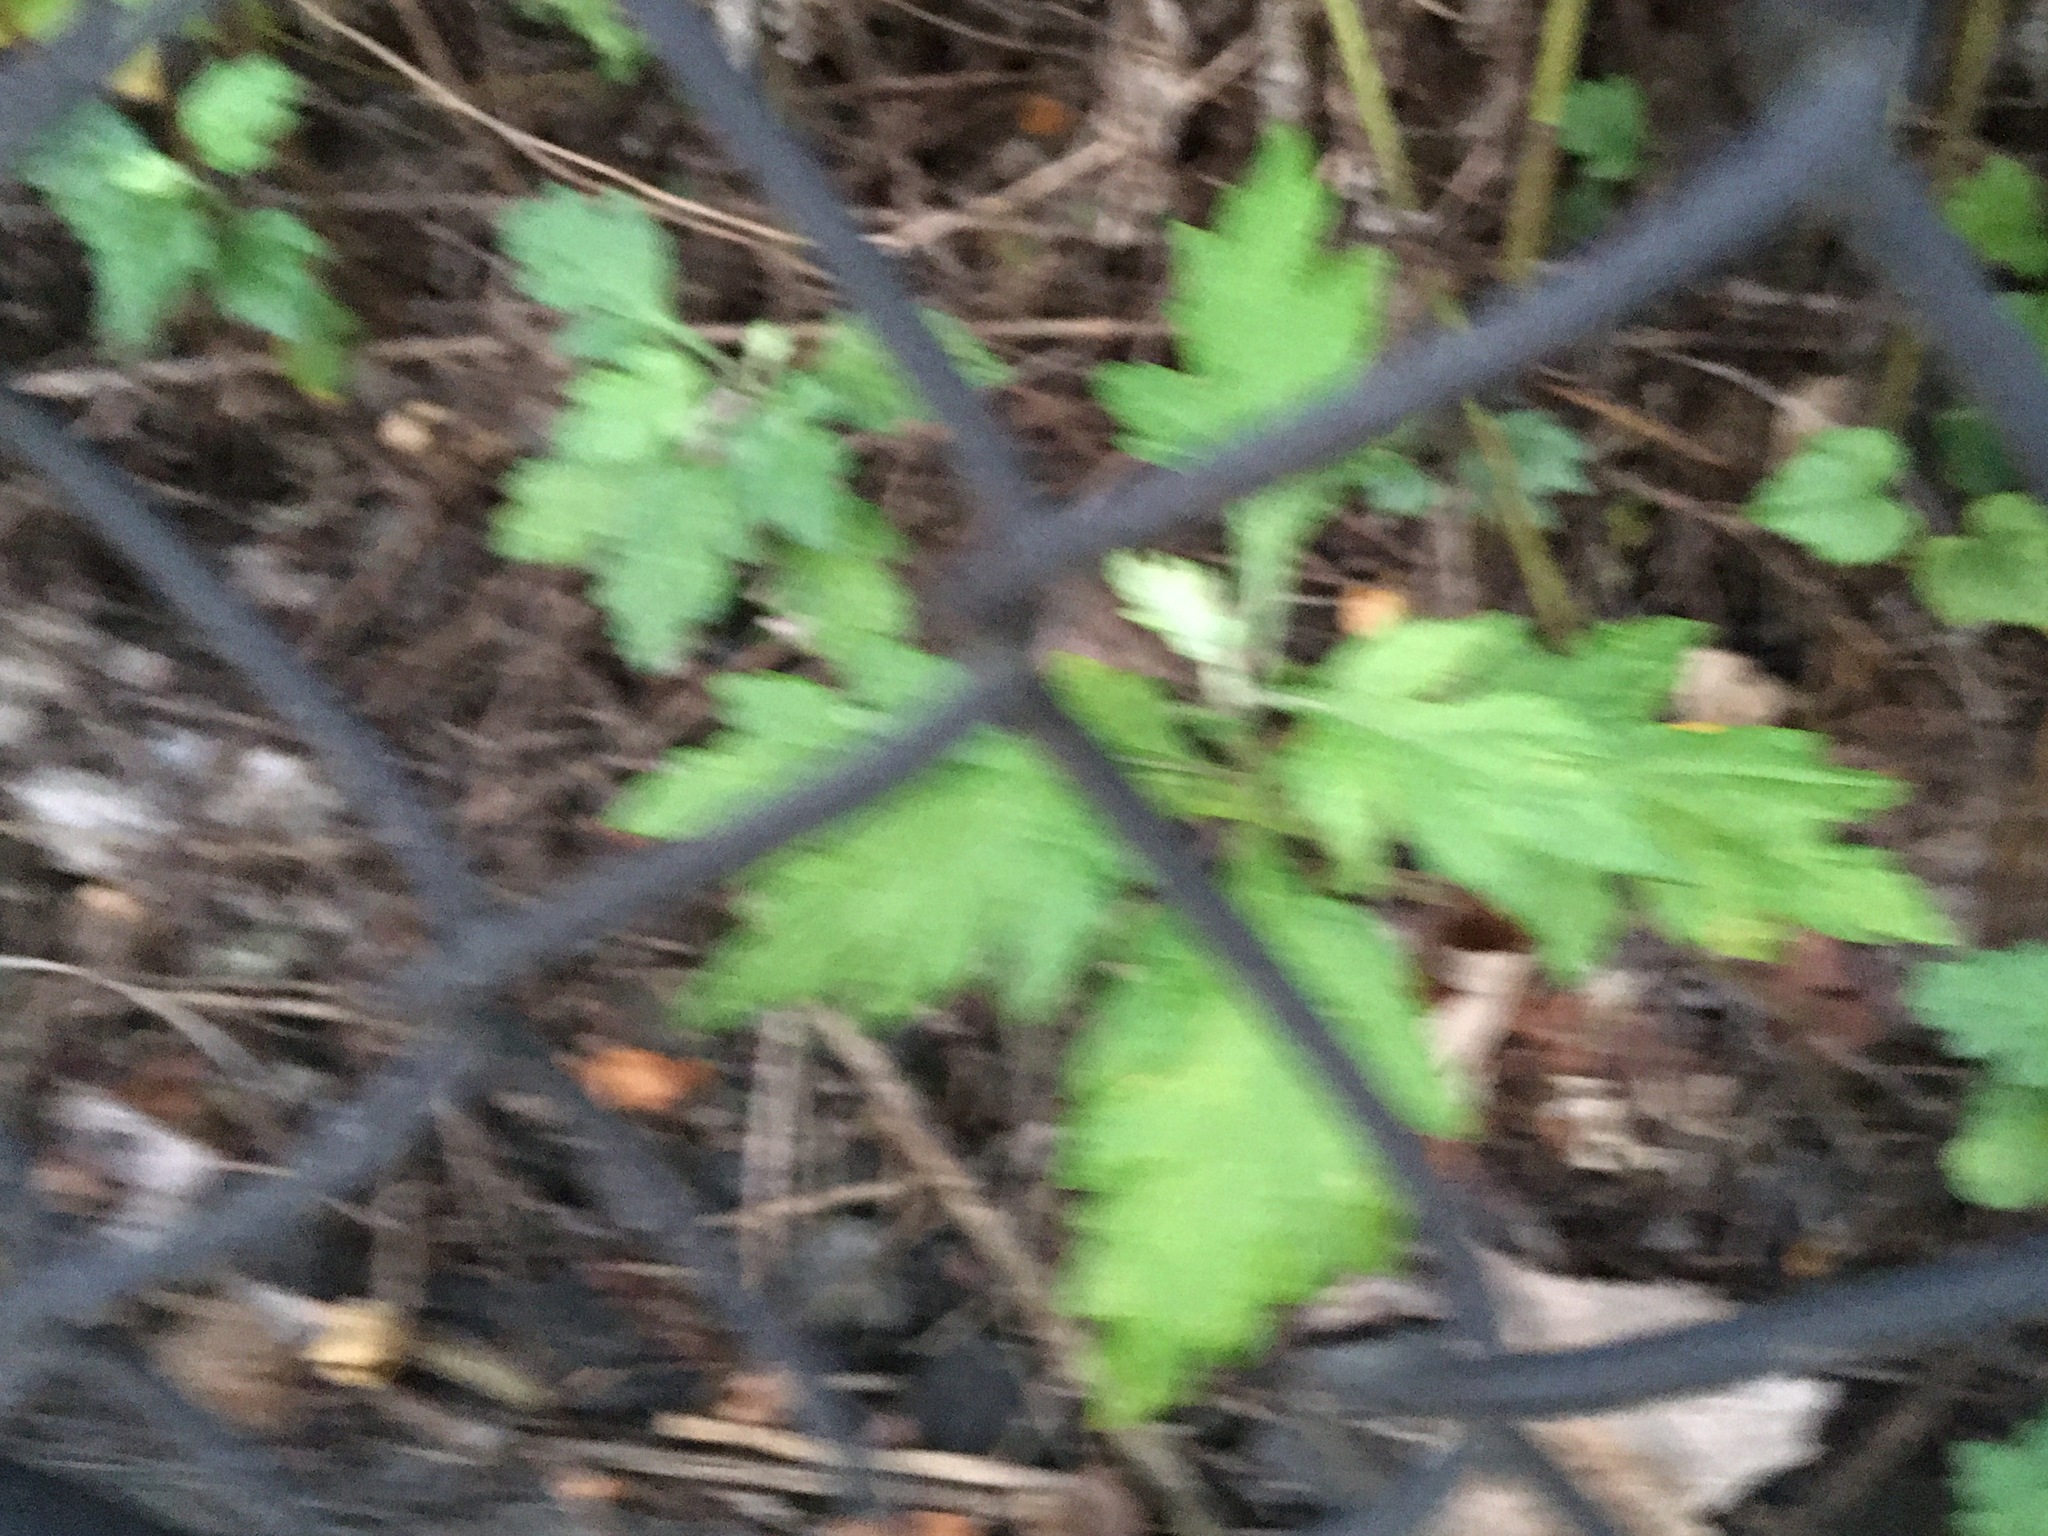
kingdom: Plantae
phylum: Tracheophyta
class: Magnoliopsida
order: Asterales
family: Asteraceae
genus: Artemisia
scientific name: Artemisia vulgaris
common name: Mugwort
